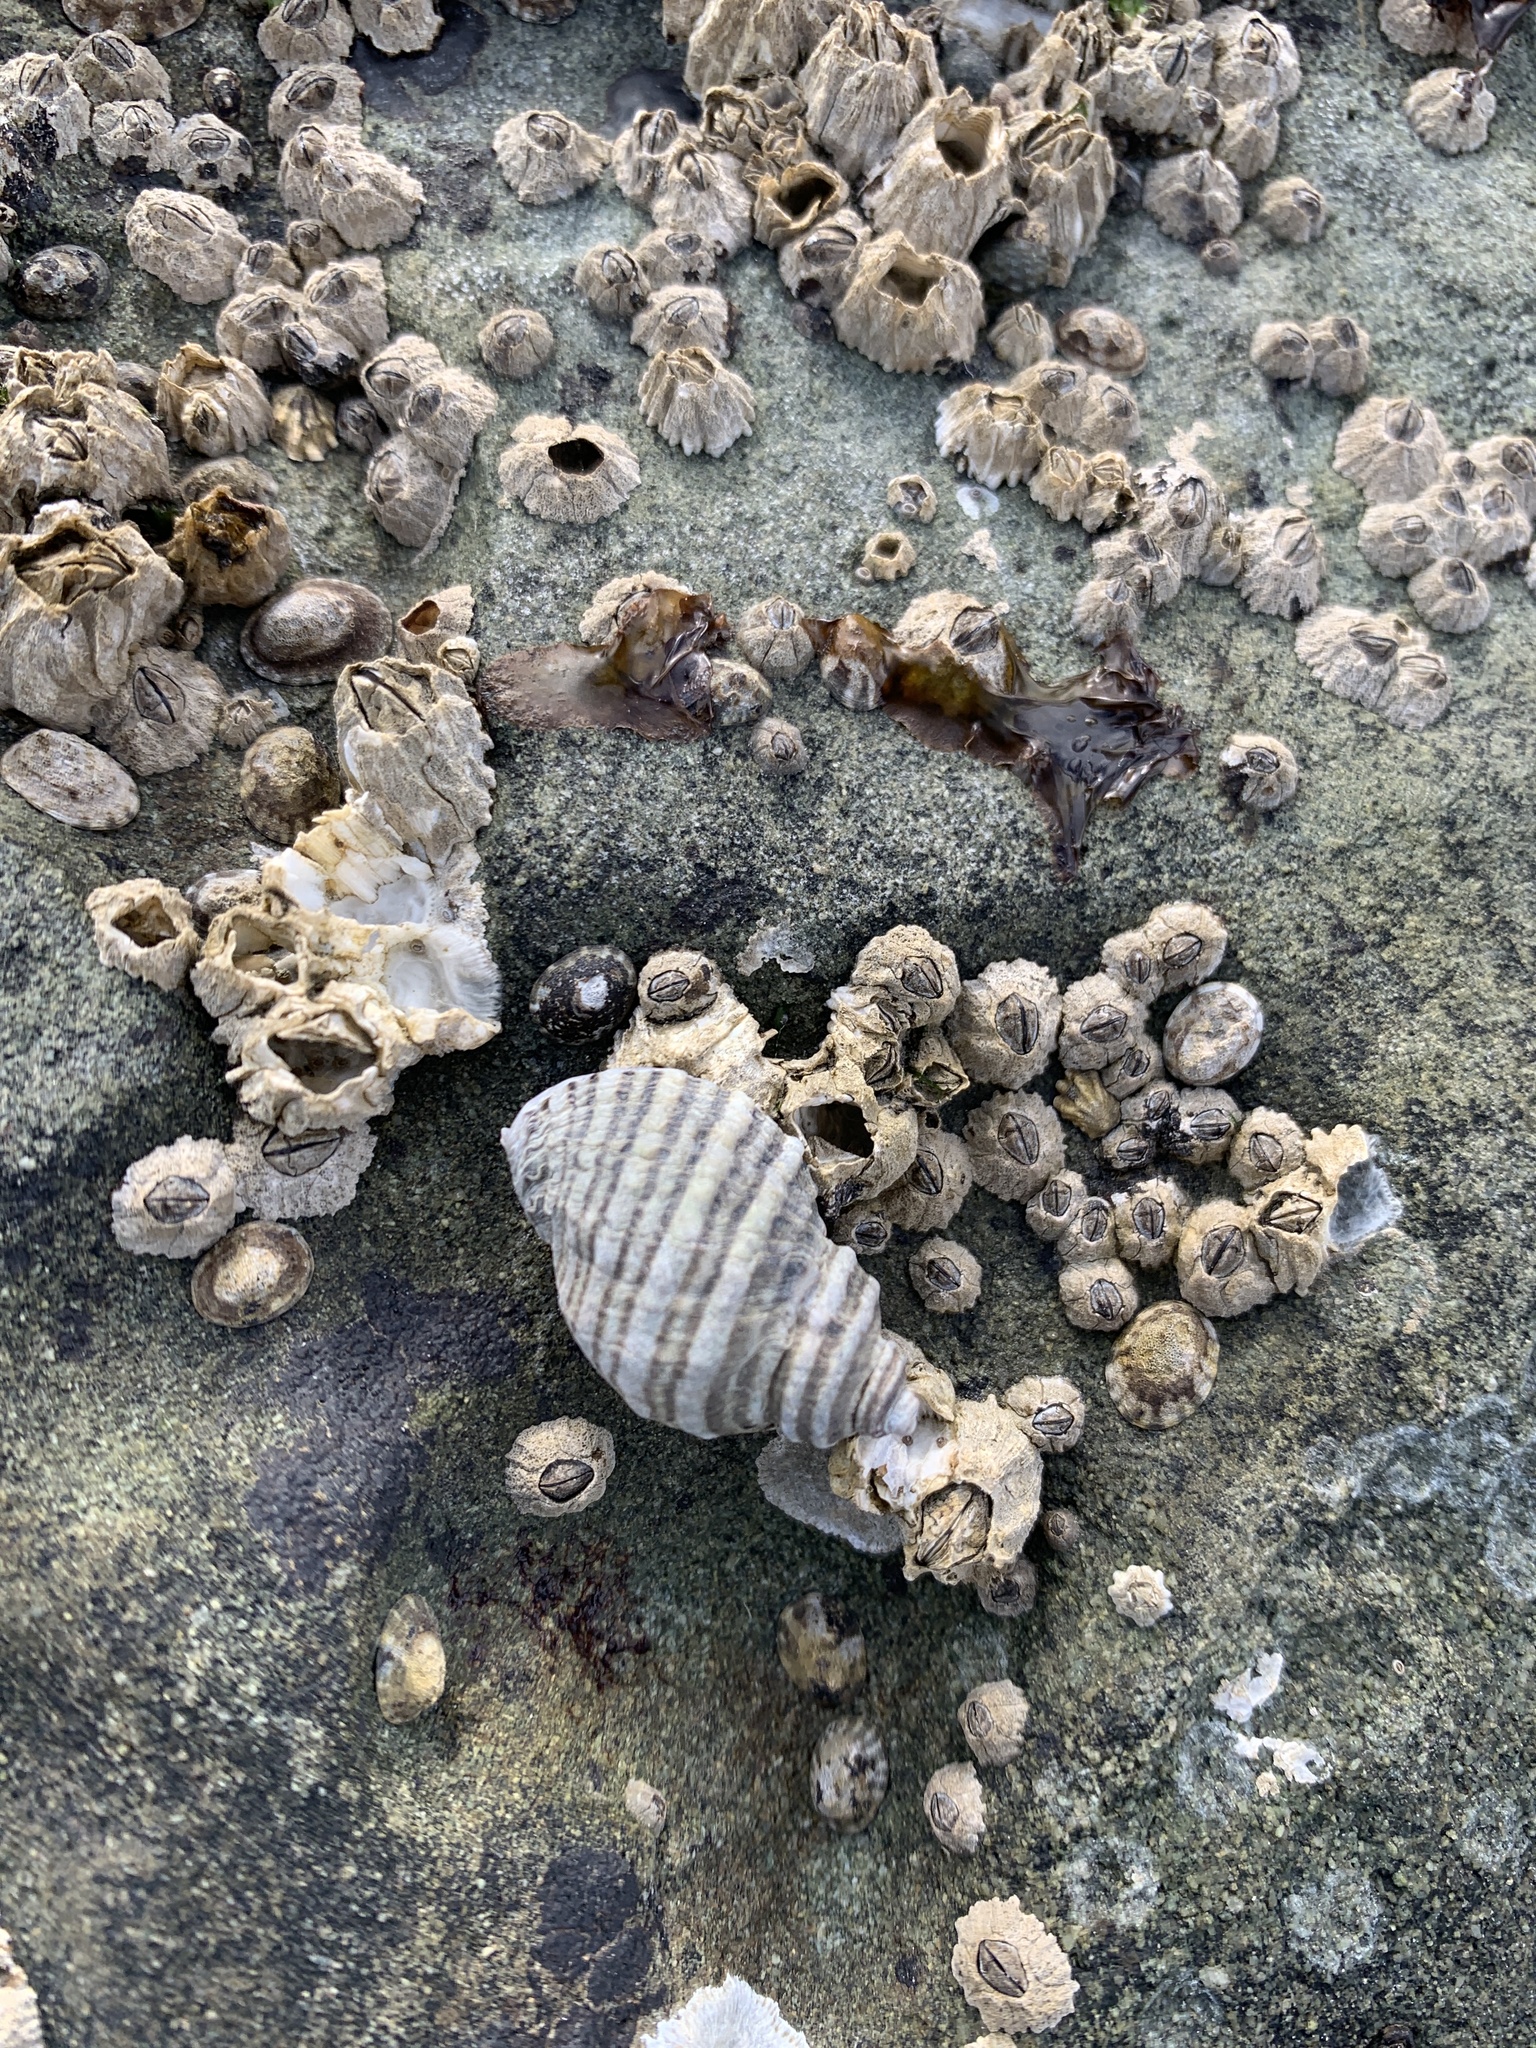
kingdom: Animalia
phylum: Mollusca
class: Gastropoda
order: Neogastropoda
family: Muricidae
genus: Nucella
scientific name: Nucella ostrina
